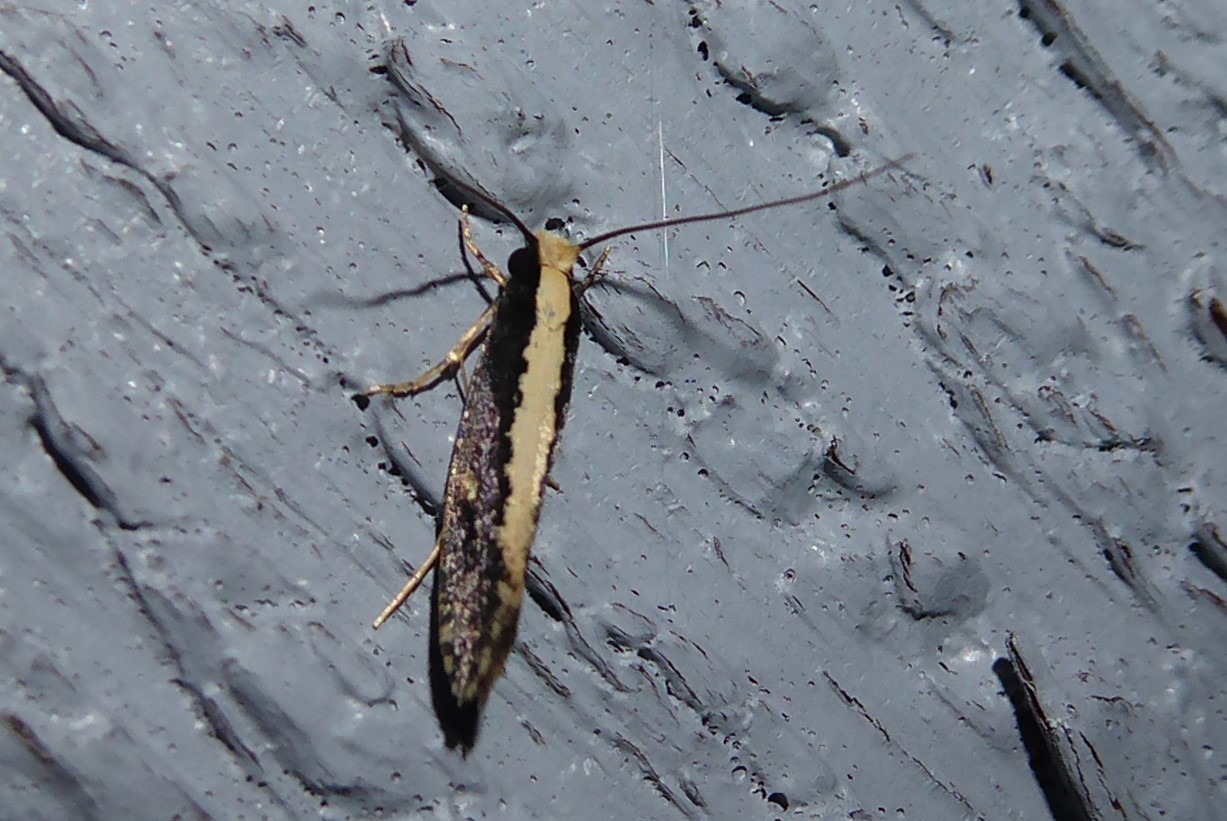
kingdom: Animalia
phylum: Arthropoda
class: Insecta
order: Lepidoptera
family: Tineidae
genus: Monopis
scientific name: Monopis ethelella
